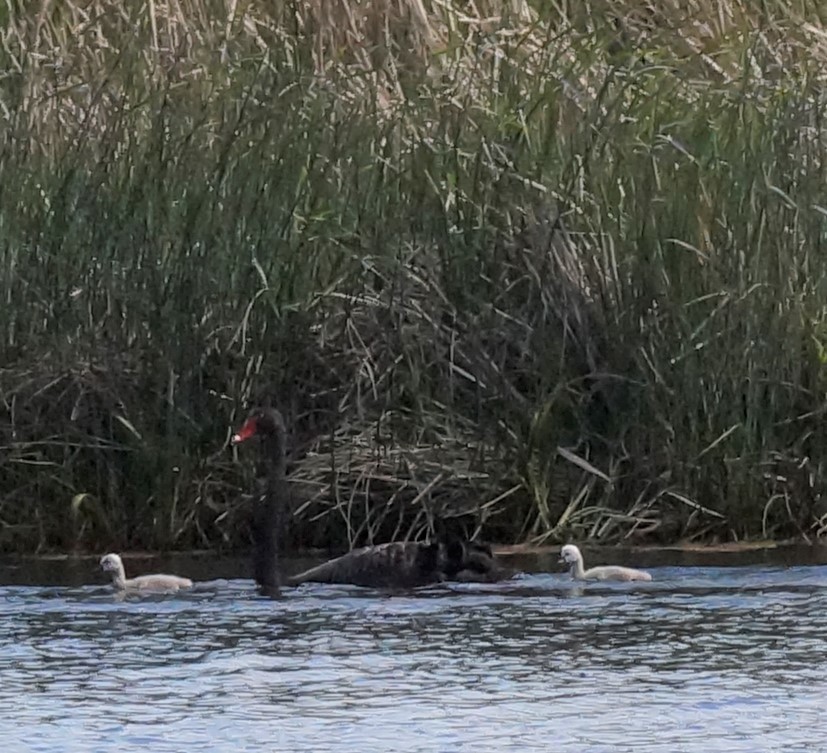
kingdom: Animalia
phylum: Chordata
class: Aves
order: Anseriformes
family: Anatidae
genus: Cygnus
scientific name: Cygnus atratus
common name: Black swan
